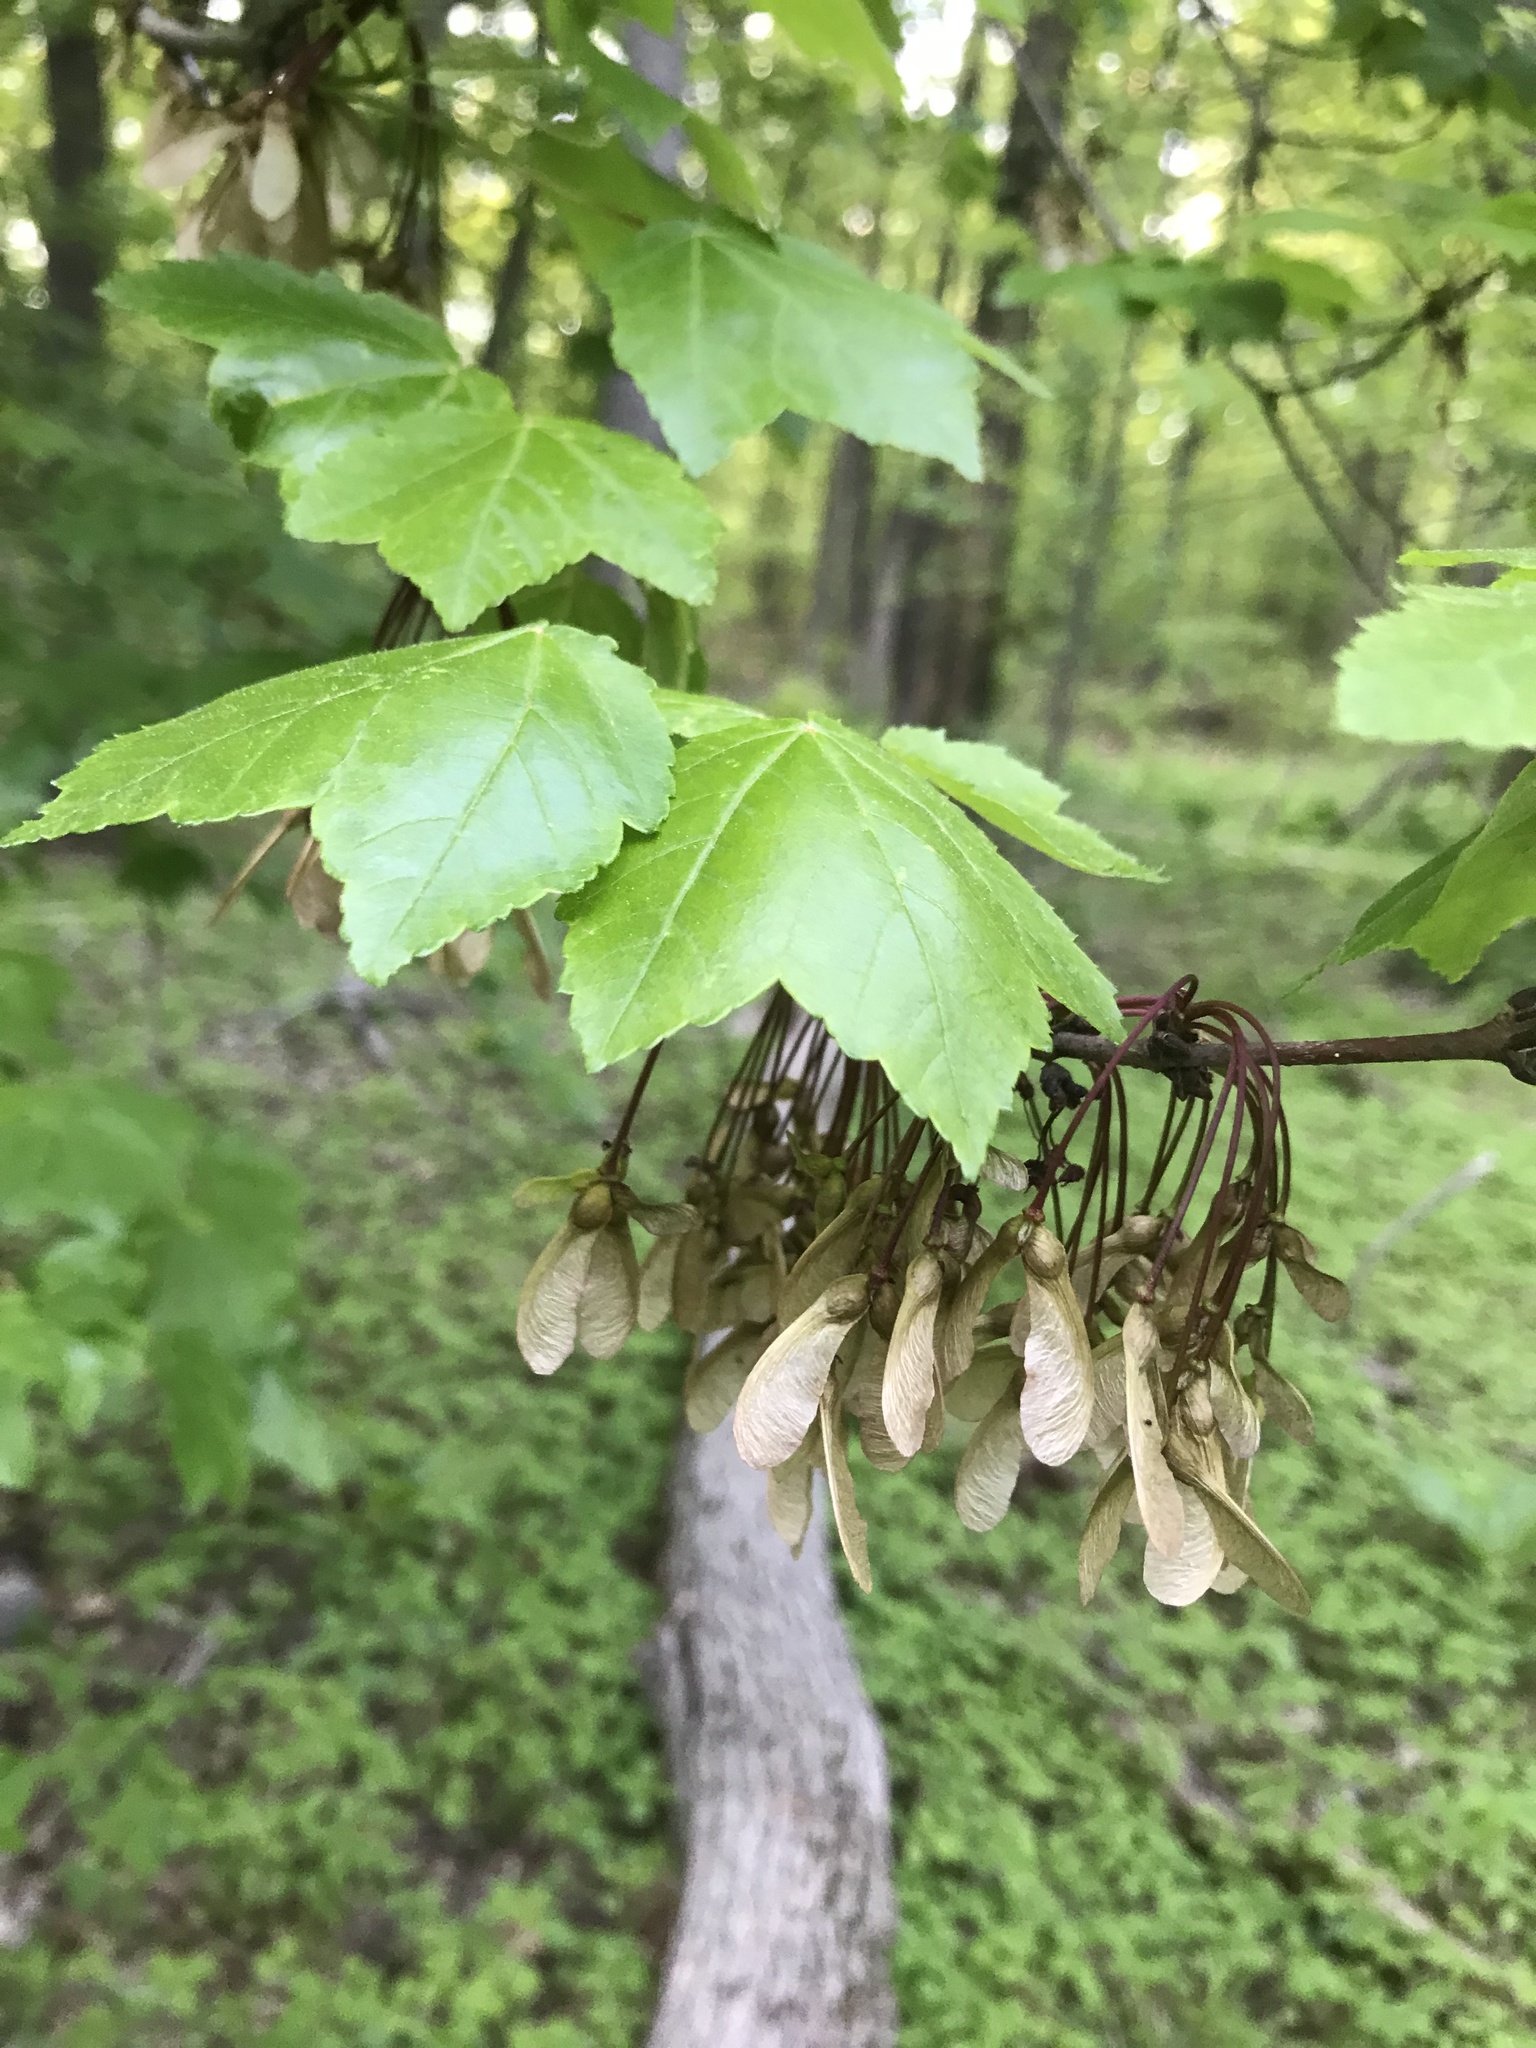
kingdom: Plantae
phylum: Tracheophyta
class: Magnoliopsida
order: Sapindales
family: Sapindaceae
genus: Acer
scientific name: Acer rubrum
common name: Red maple
